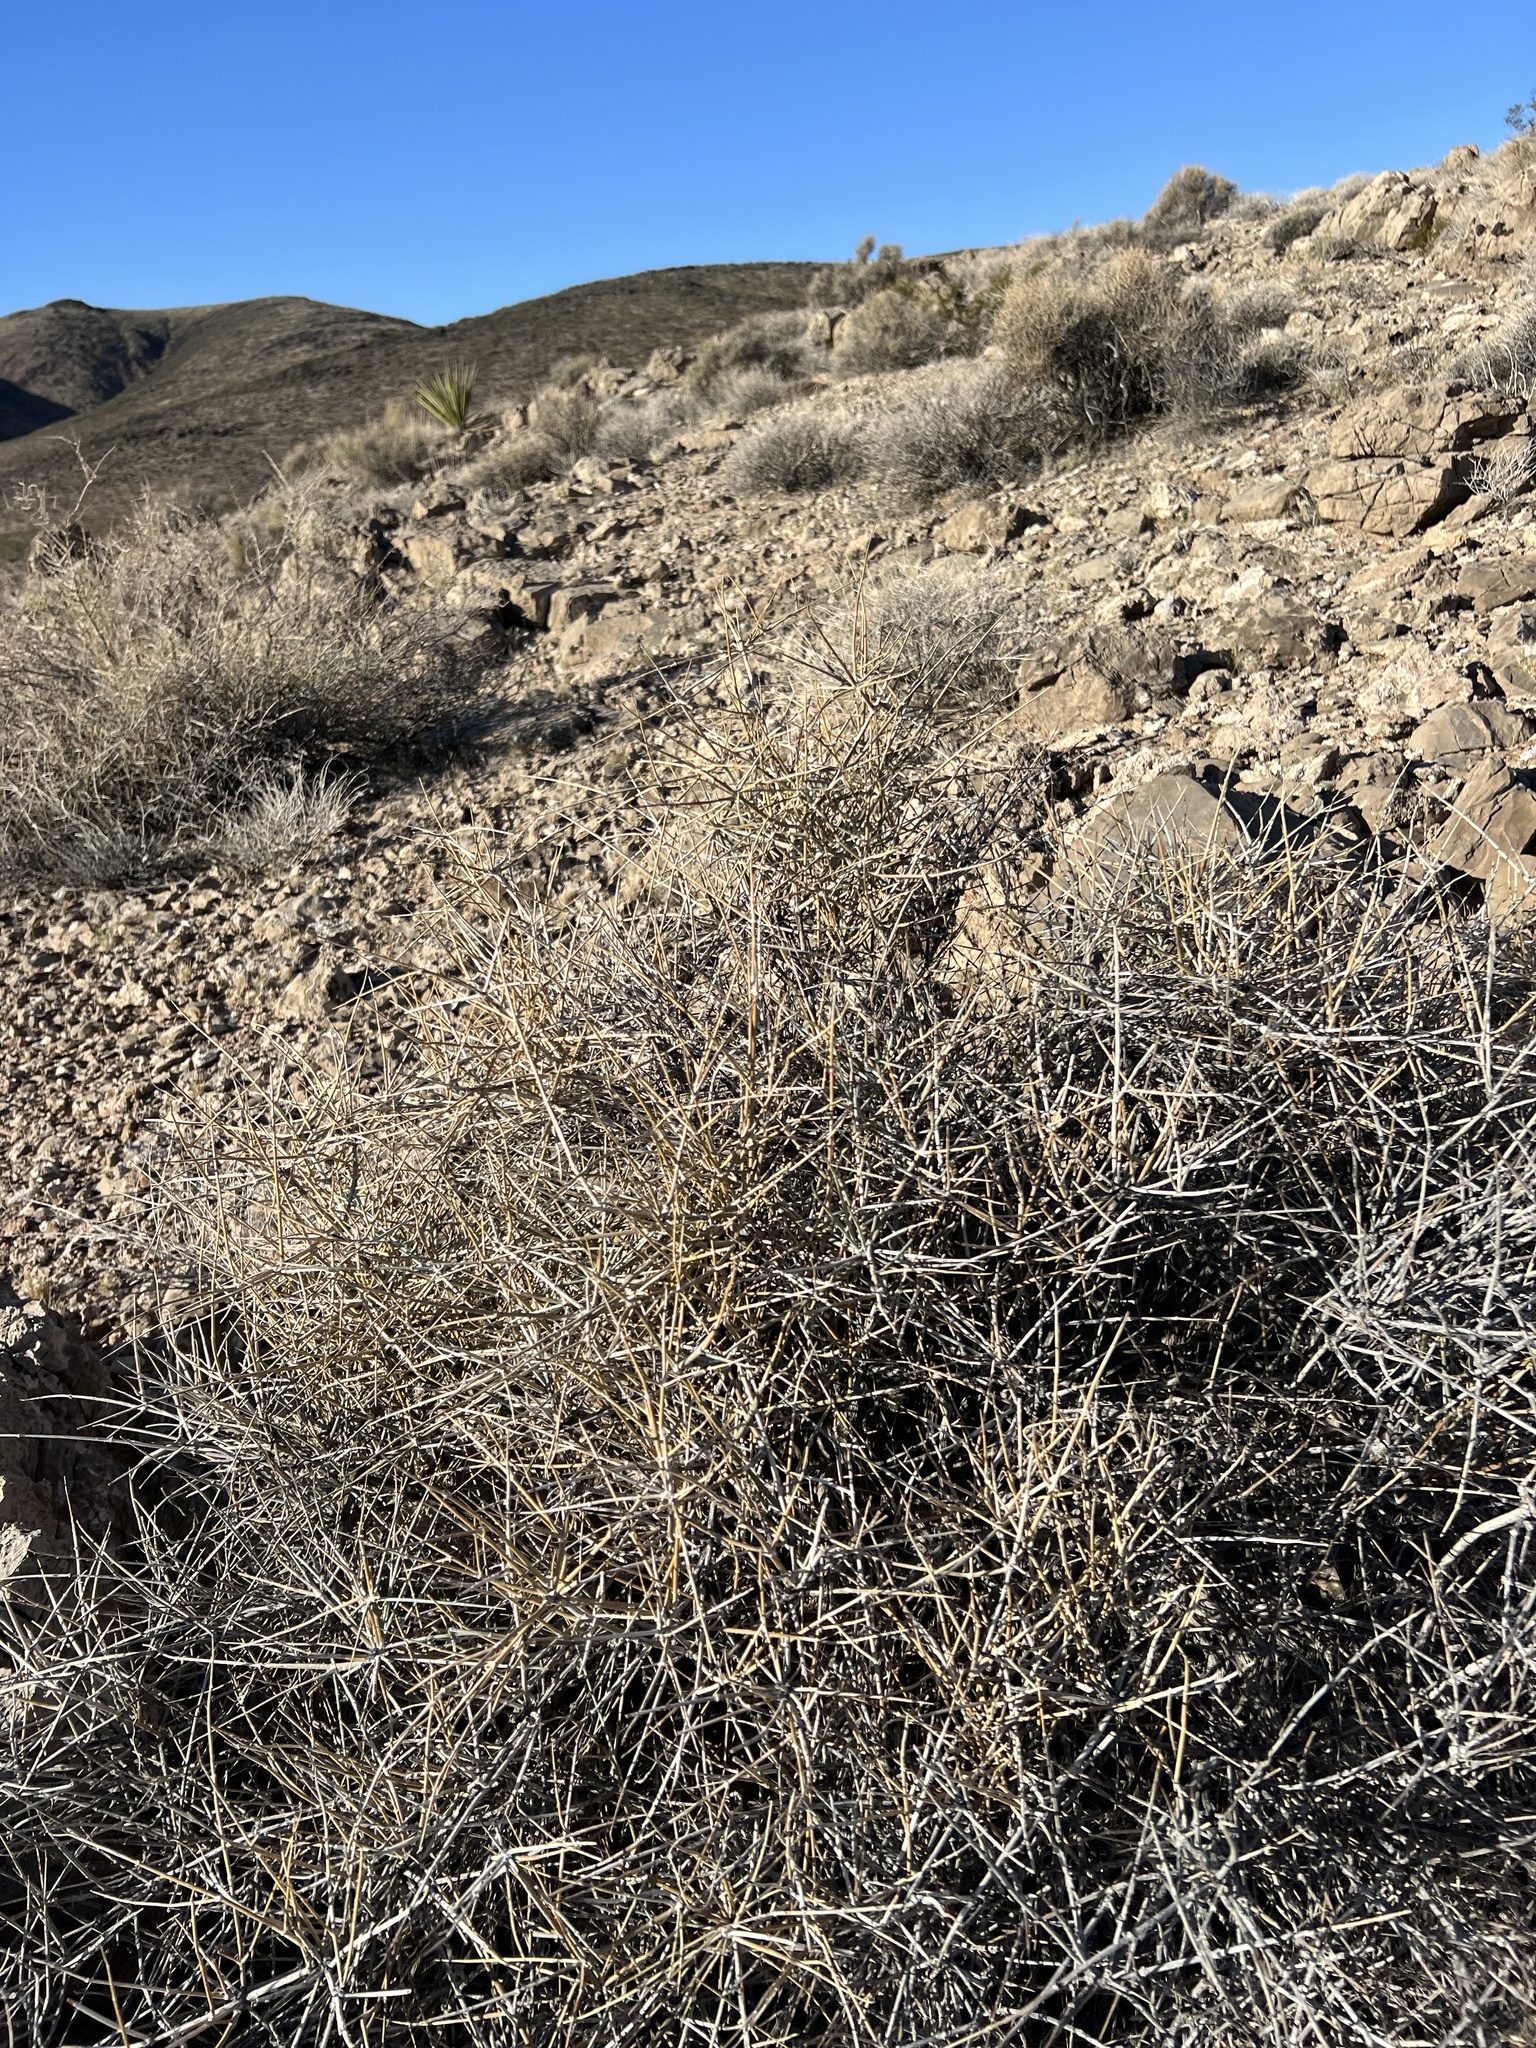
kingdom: Plantae
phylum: Tracheophyta
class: Gnetopsida
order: Ephedrales
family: Ephedraceae
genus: Ephedra
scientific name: Ephedra nevadensis
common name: Gray ephedra
